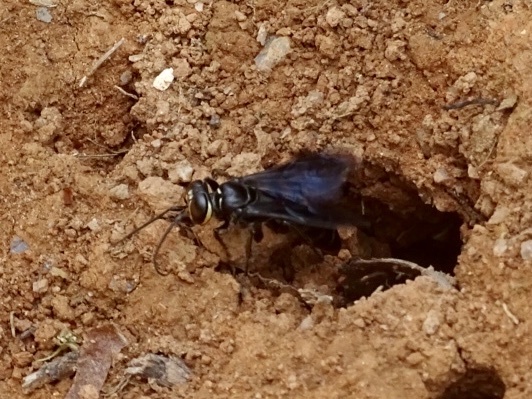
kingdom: Animalia
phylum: Arthropoda
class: Insecta
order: Hymenoptera
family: Crabronidae
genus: Liris
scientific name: Liris anthracinus
